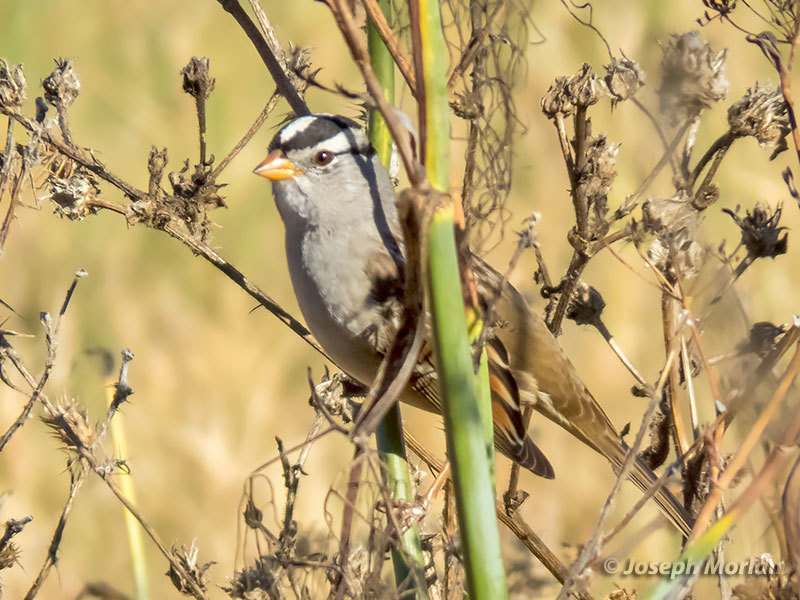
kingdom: Animalia
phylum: Chordata
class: Aves
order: Passeriformes
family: Passerellidae
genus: Zonotrichia
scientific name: Zonotrichia leucophrys
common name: White-crowned sparrow
